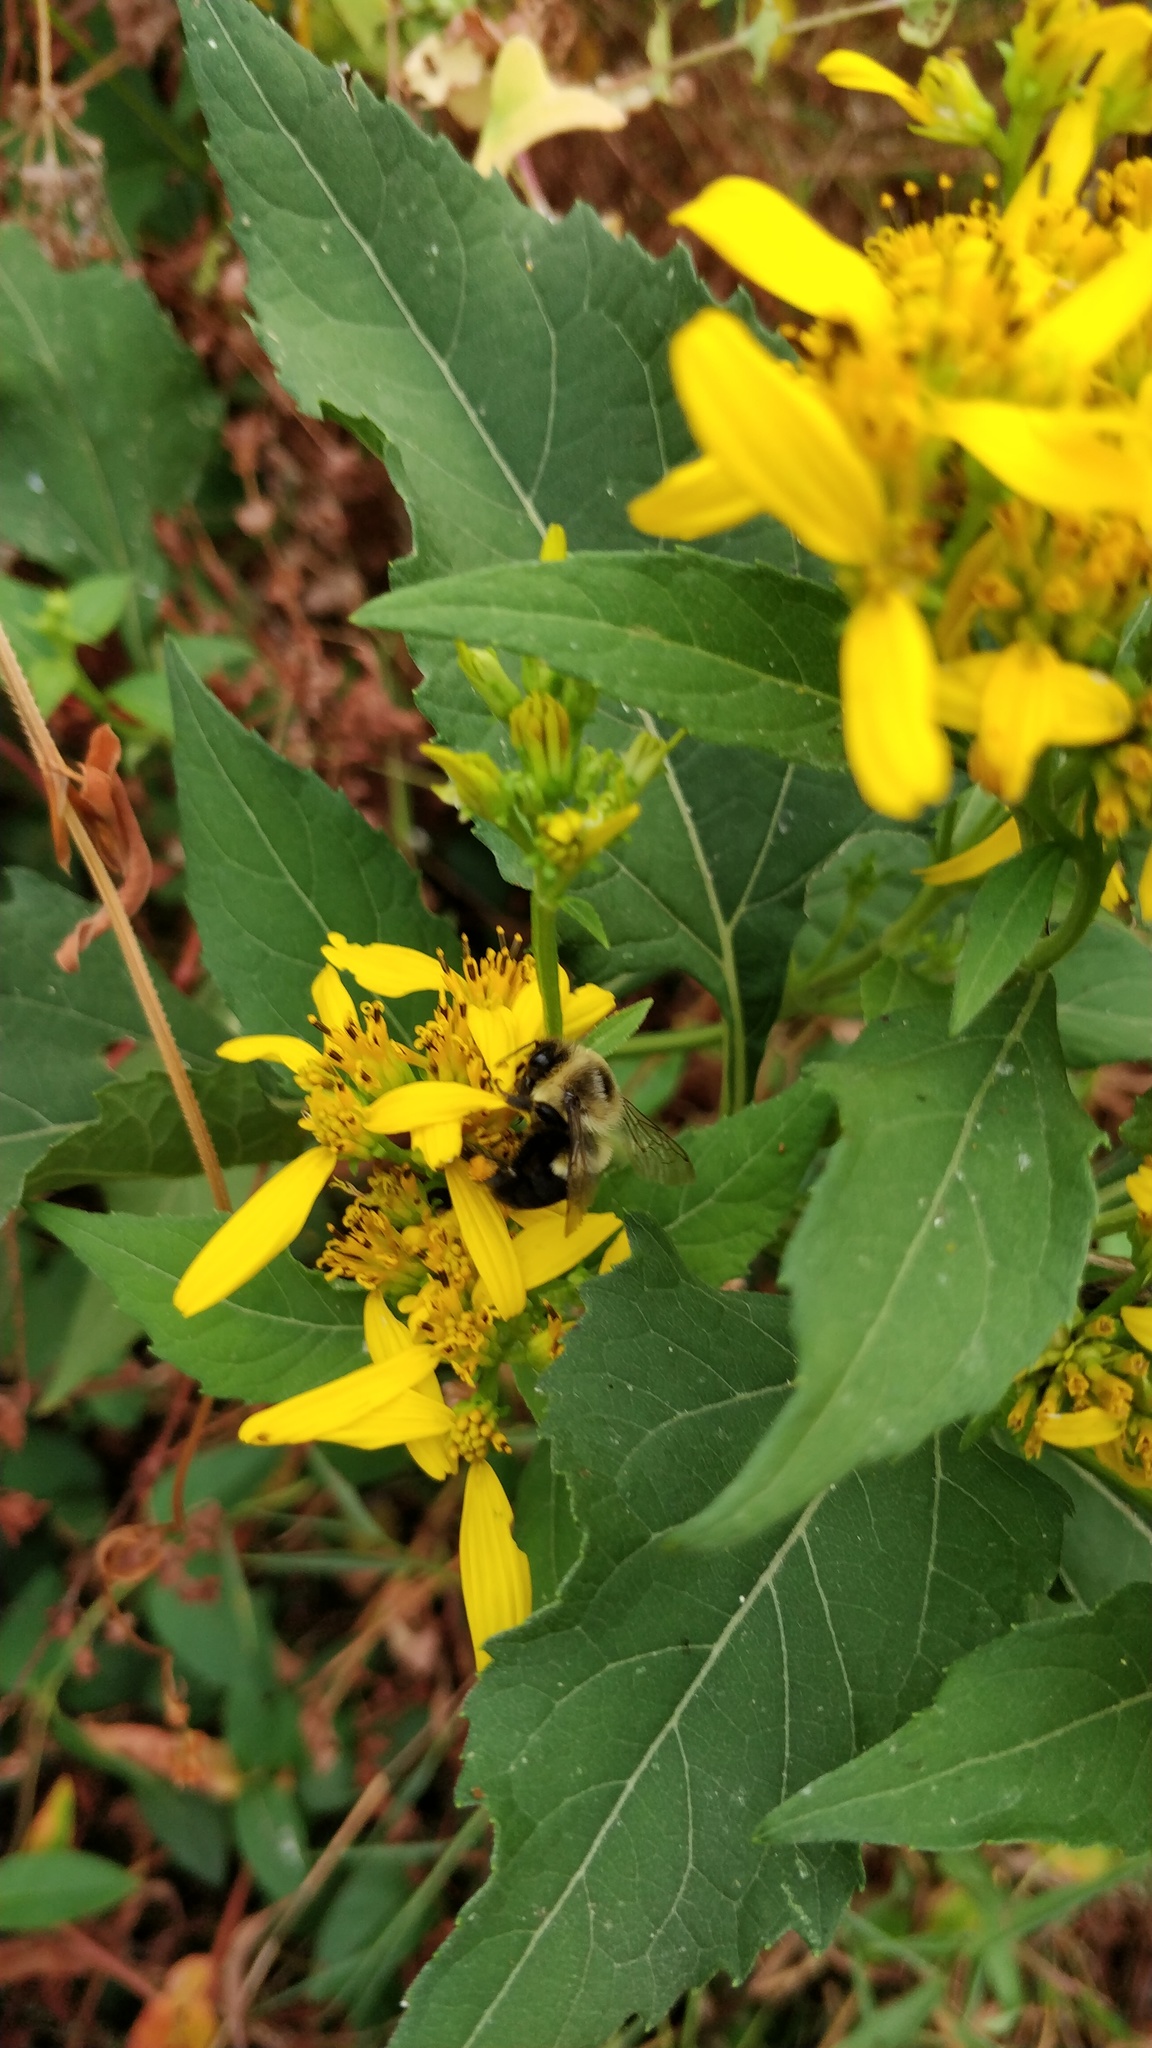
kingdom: Animalia
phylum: Arthropoda
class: Insecta
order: Hymenoptera
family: Apidae
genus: Bombus
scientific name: Bombus impatiens
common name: Common eastern bumble bee
